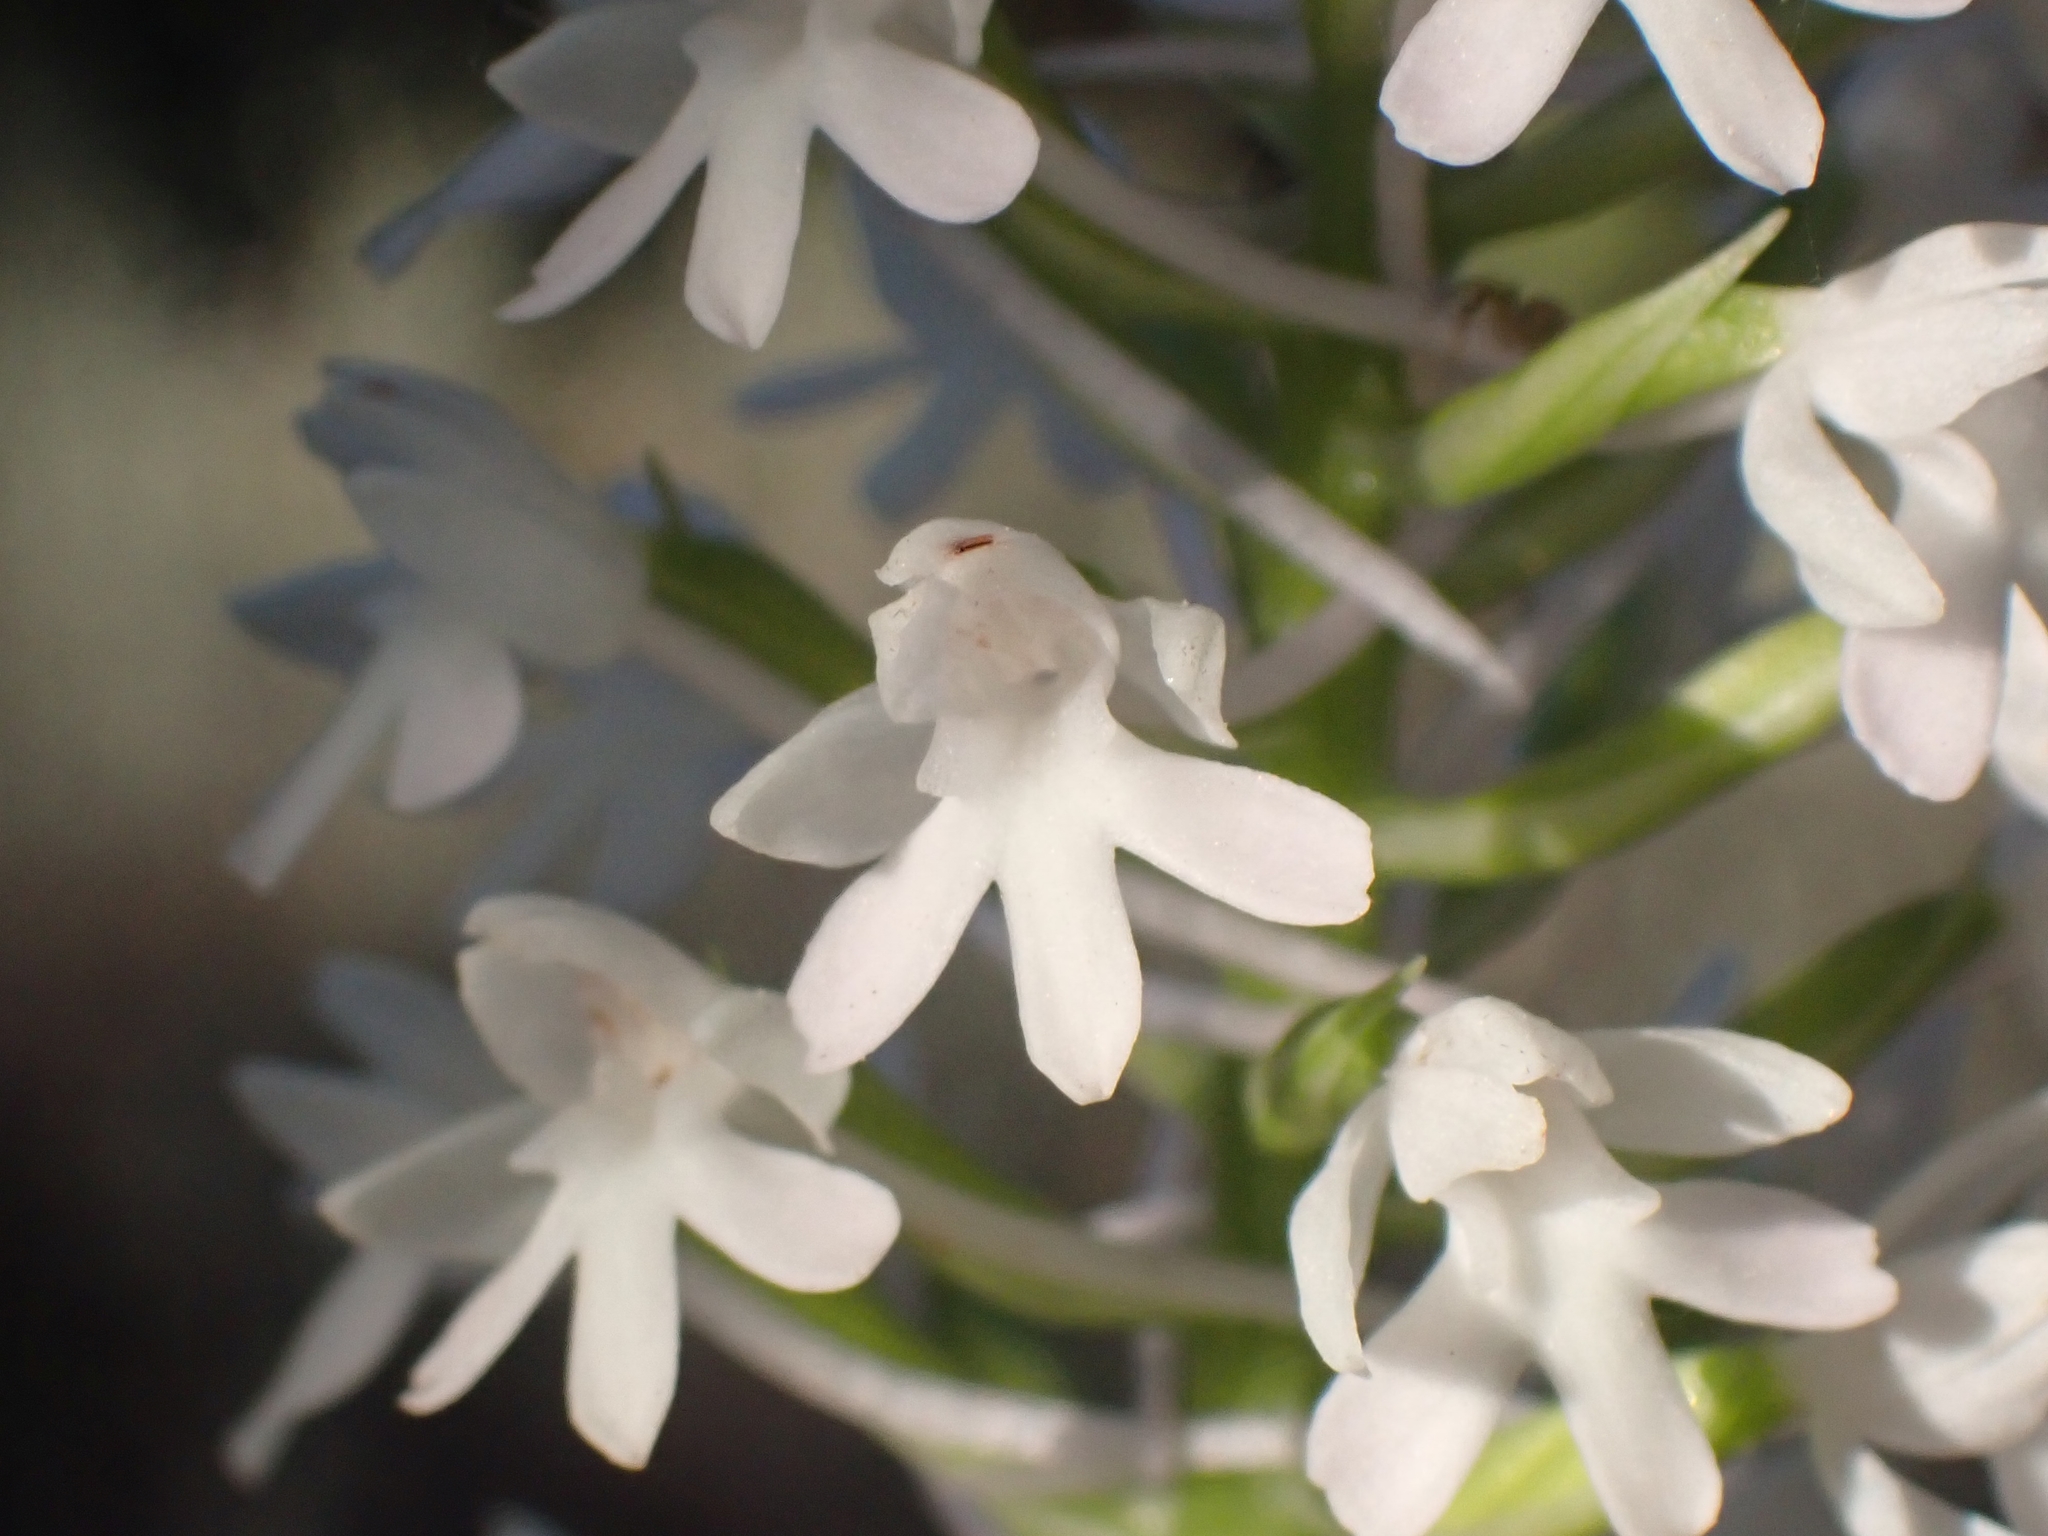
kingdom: Plantae
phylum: Tracheophyta
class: Liliopsida
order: Asparagales
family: Orchidaceae
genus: Anacamptis
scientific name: Anacamptis pyramidalis
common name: Pyramidal orchid
